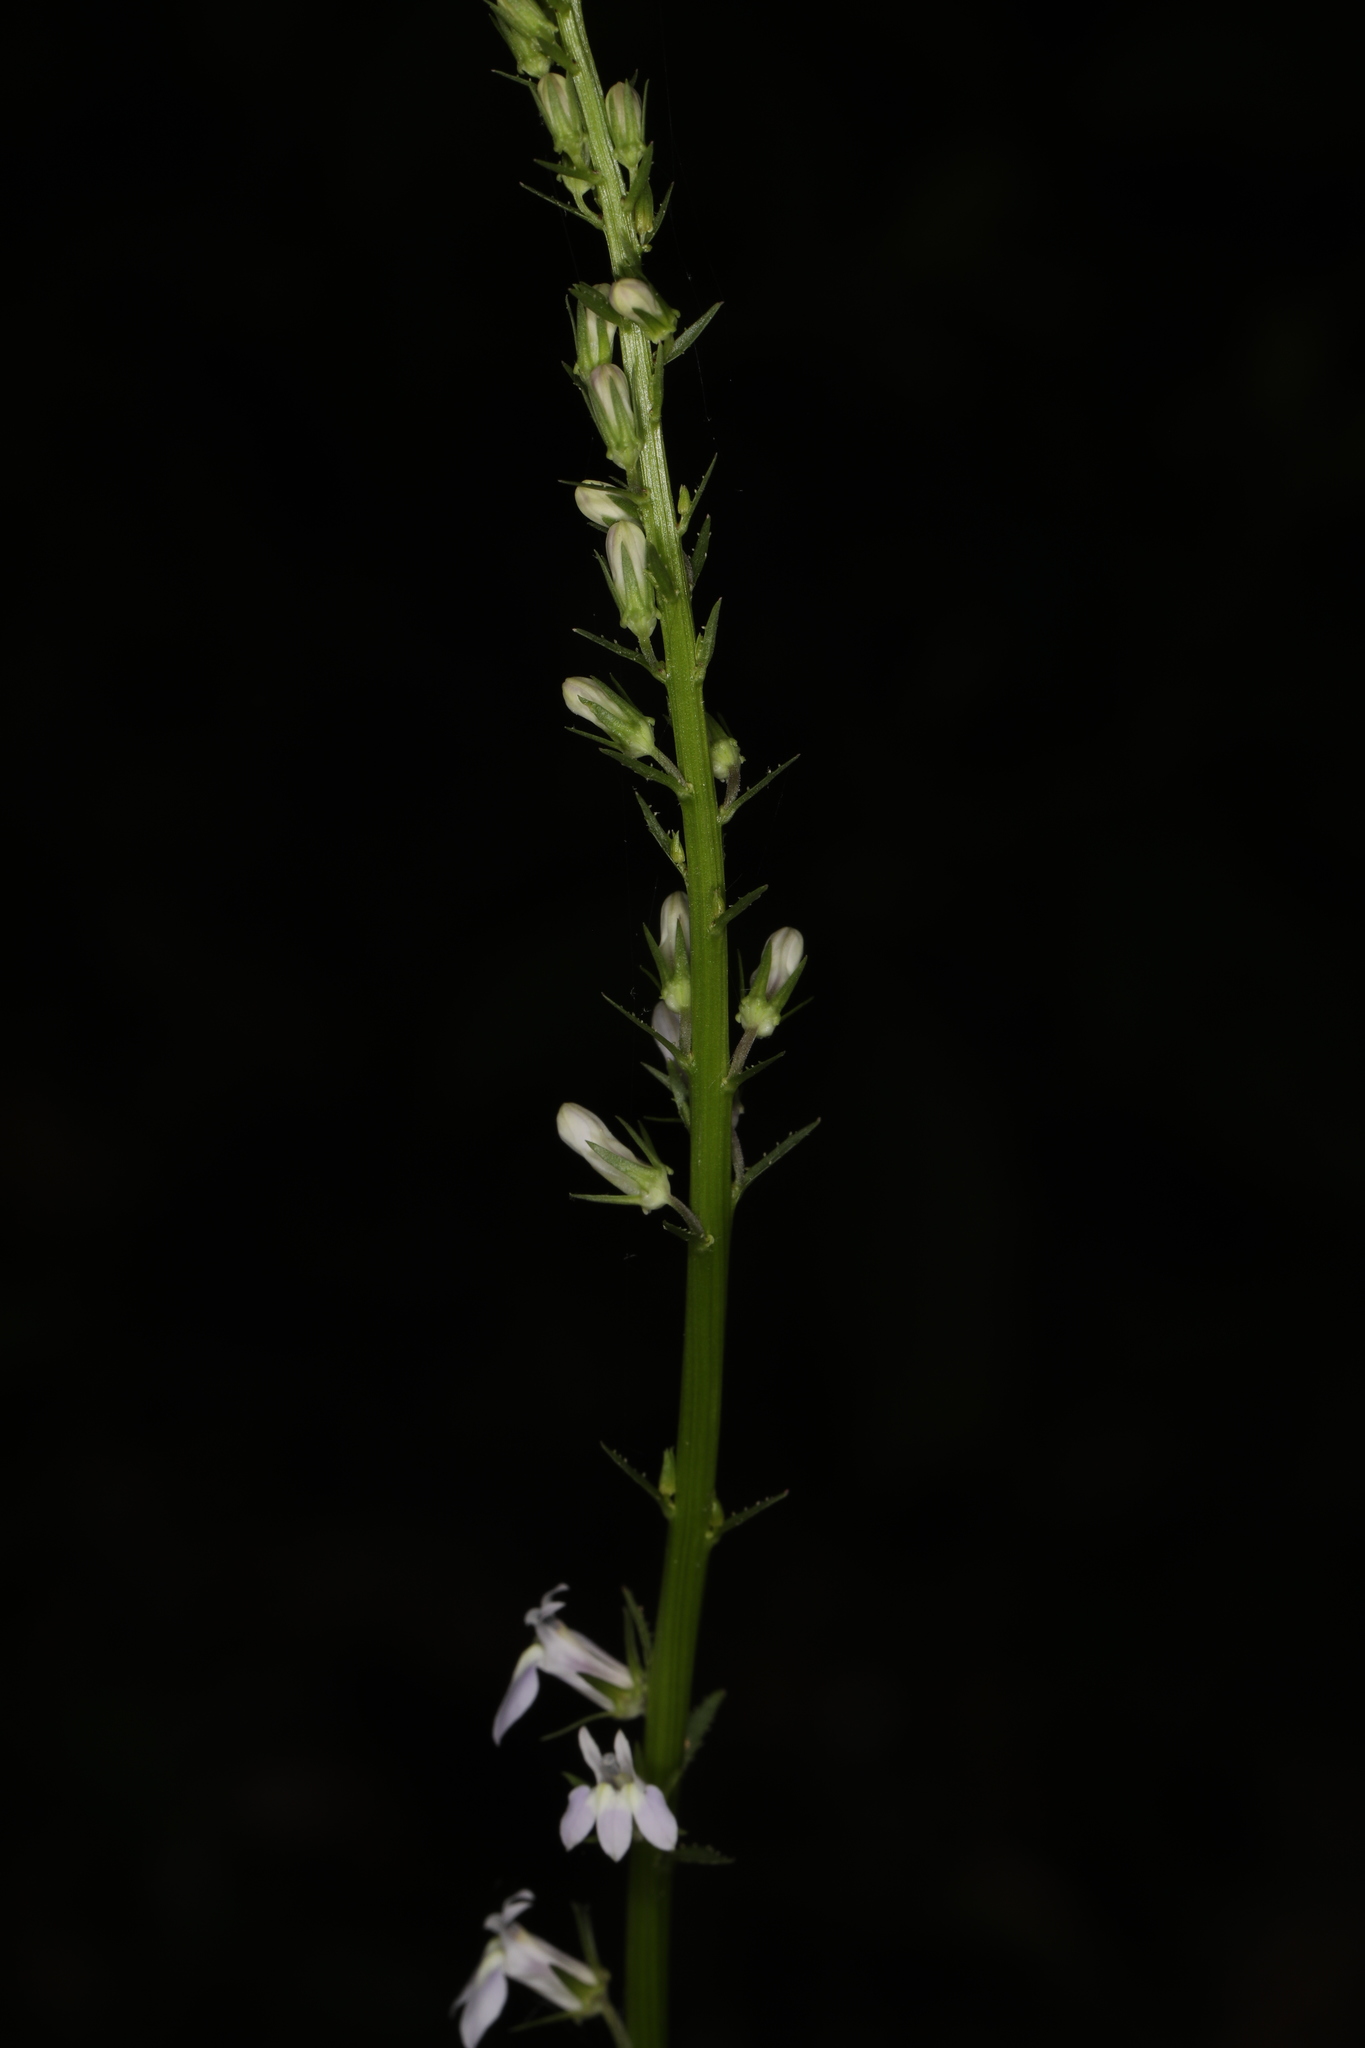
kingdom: Plantae
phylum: Tracheophyta
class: Magnoliopsida
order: Asterales
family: Campanulaceae
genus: Lobelia
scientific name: Lobelia spicata
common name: Pale-spike lobelia
